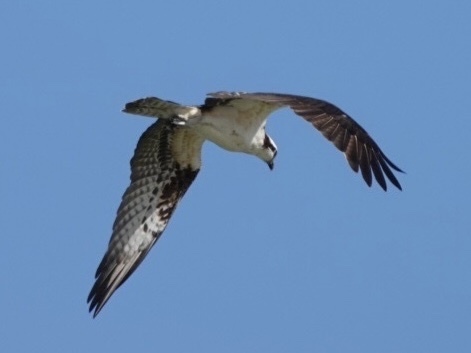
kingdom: Animalia
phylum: Chordata
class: Aves
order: Accipitriformes
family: Pandionidae
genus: Pandion
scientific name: Pandion haliaetus
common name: Osprey
